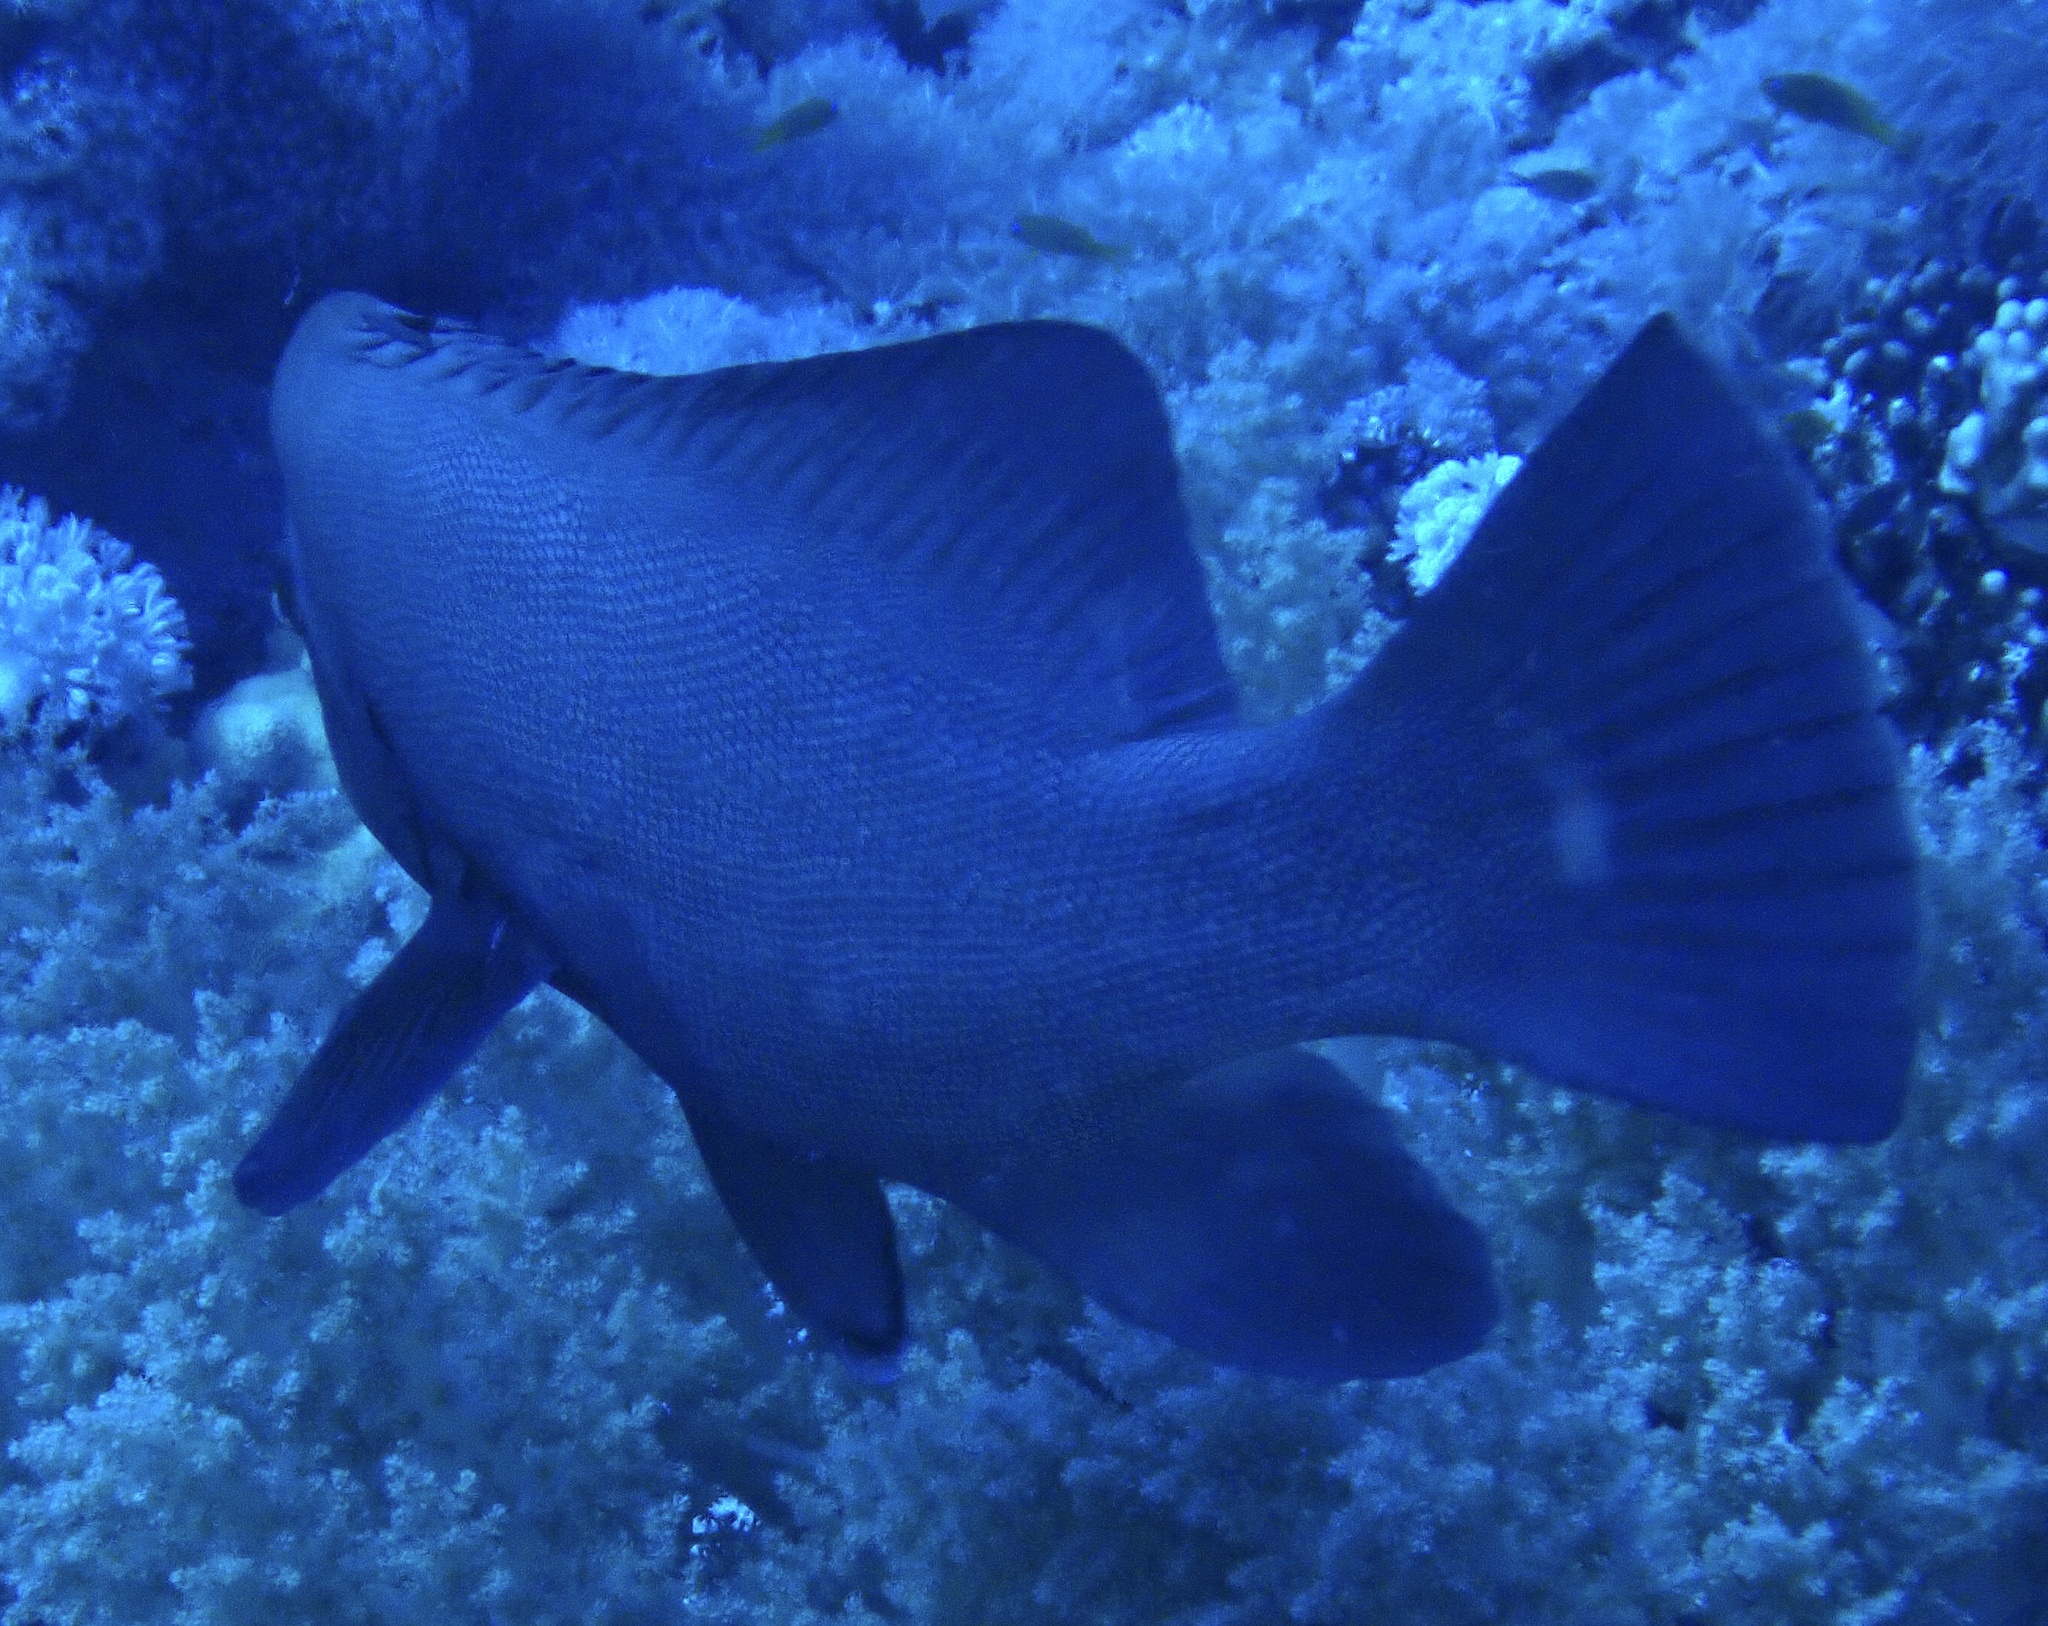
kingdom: Animalia
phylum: Chordata
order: Perciformes
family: Serranidae
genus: Aethaloperca
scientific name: Aethaloperca rogaa
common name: Redmouth grouper
